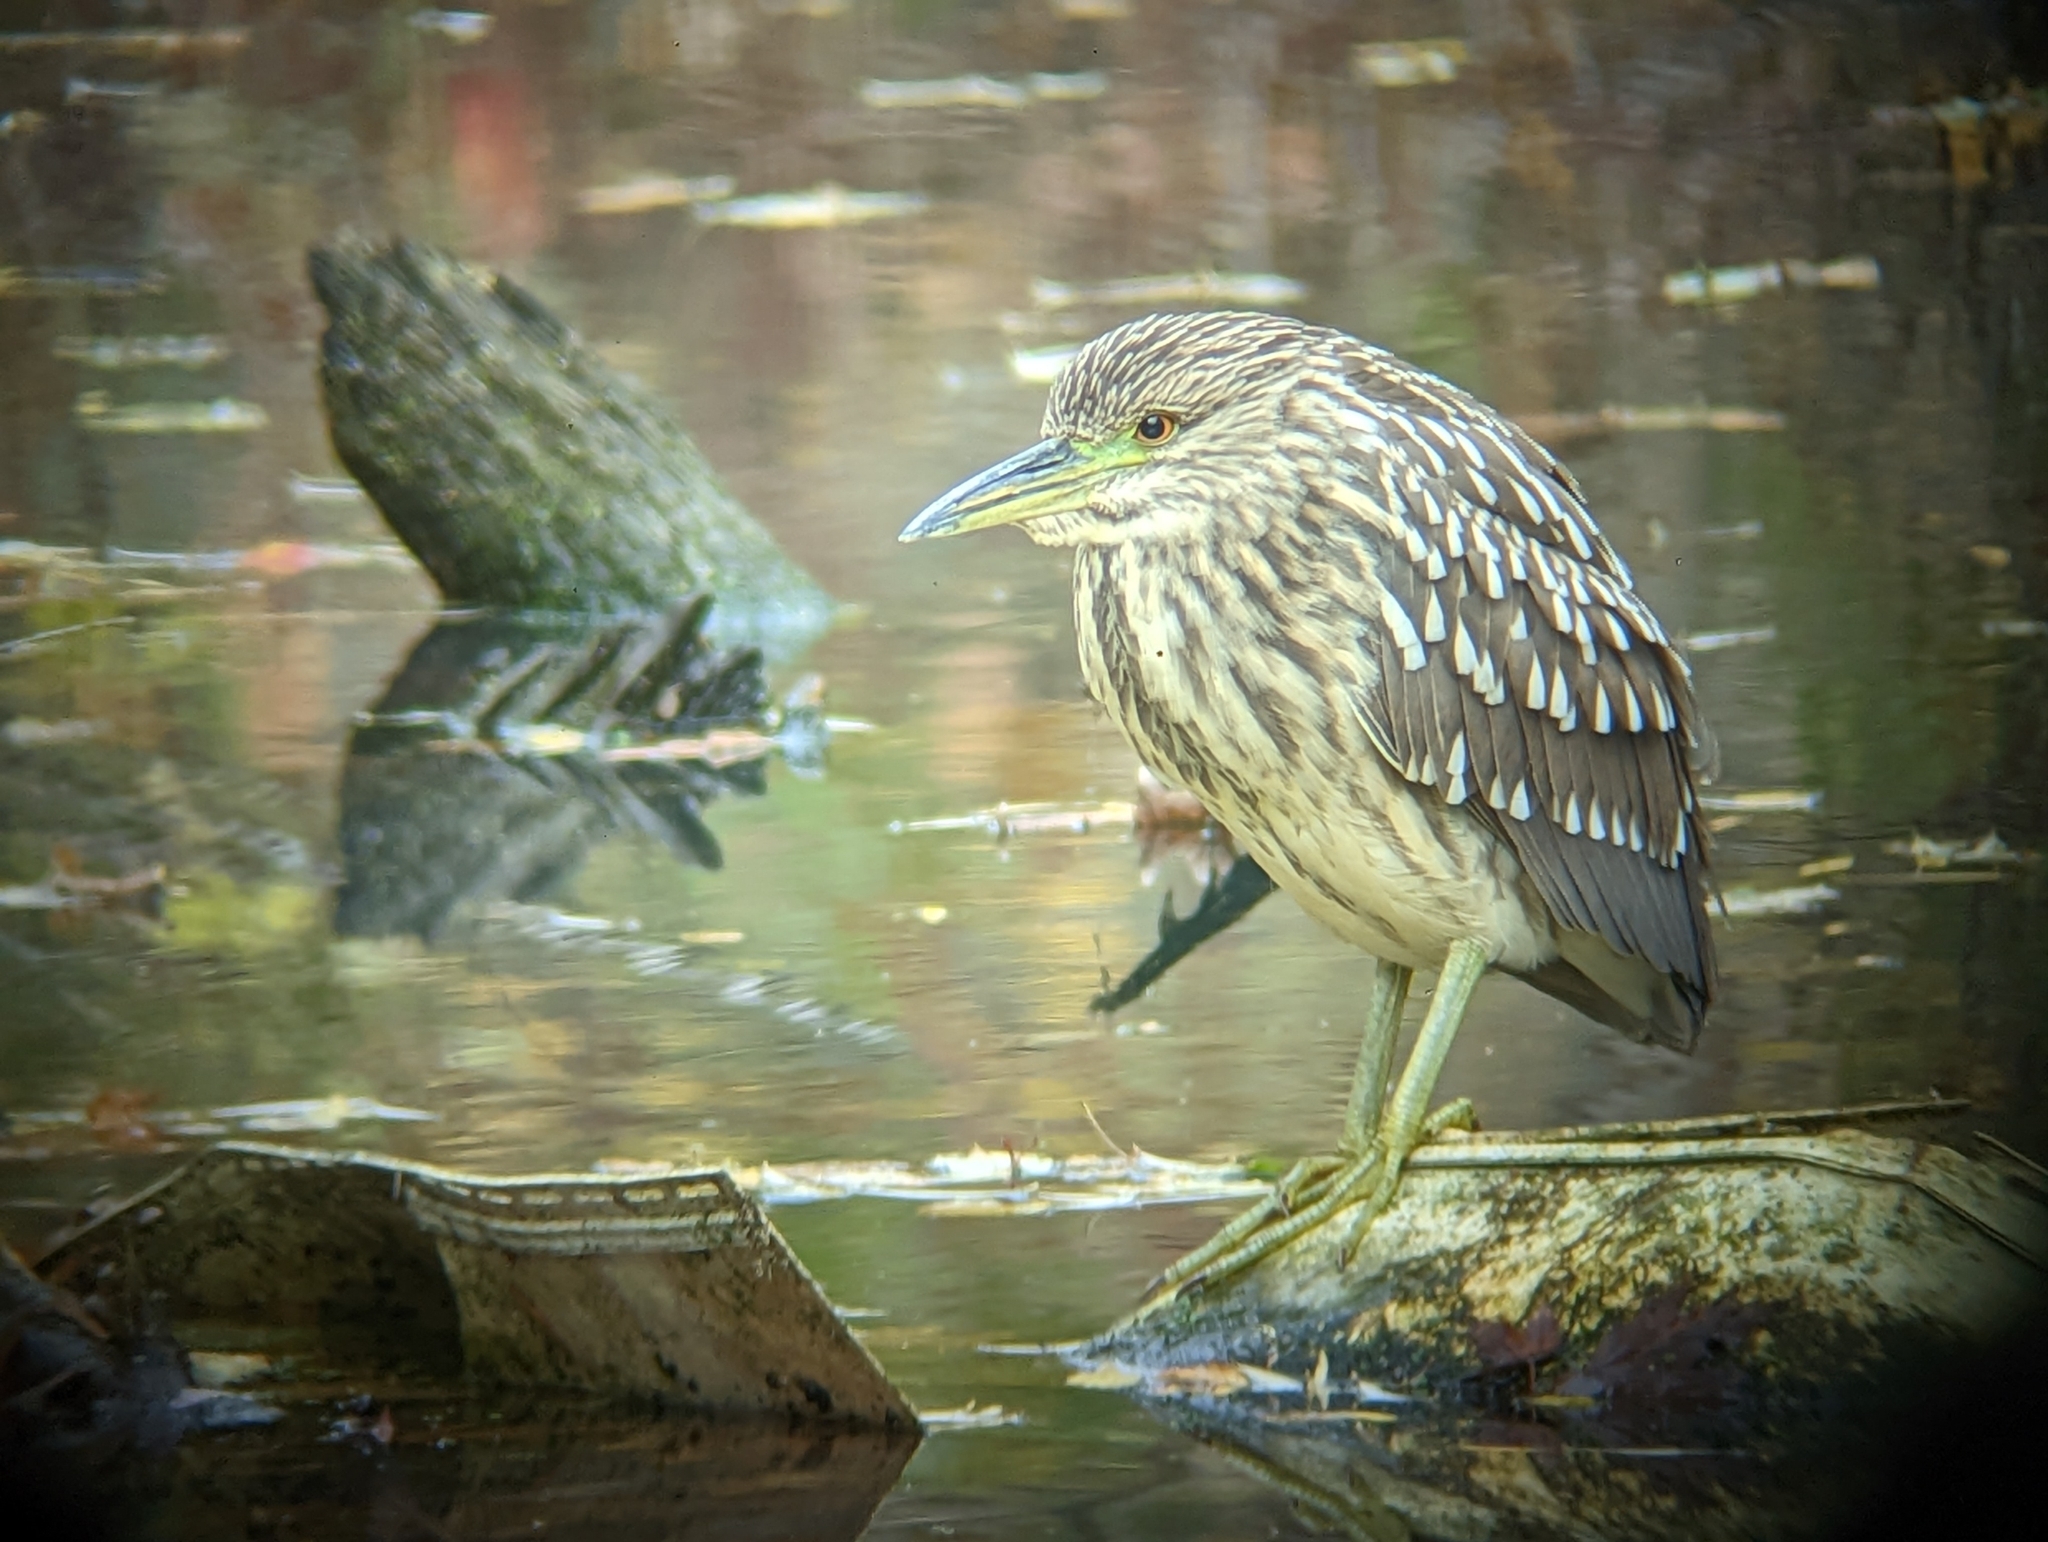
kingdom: Animalia
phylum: Chordata
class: Aves
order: Pelecaniformes
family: Ardeidae
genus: Nycticorax
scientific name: Nycticorax nycticorax
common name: Black-crowned night heron
